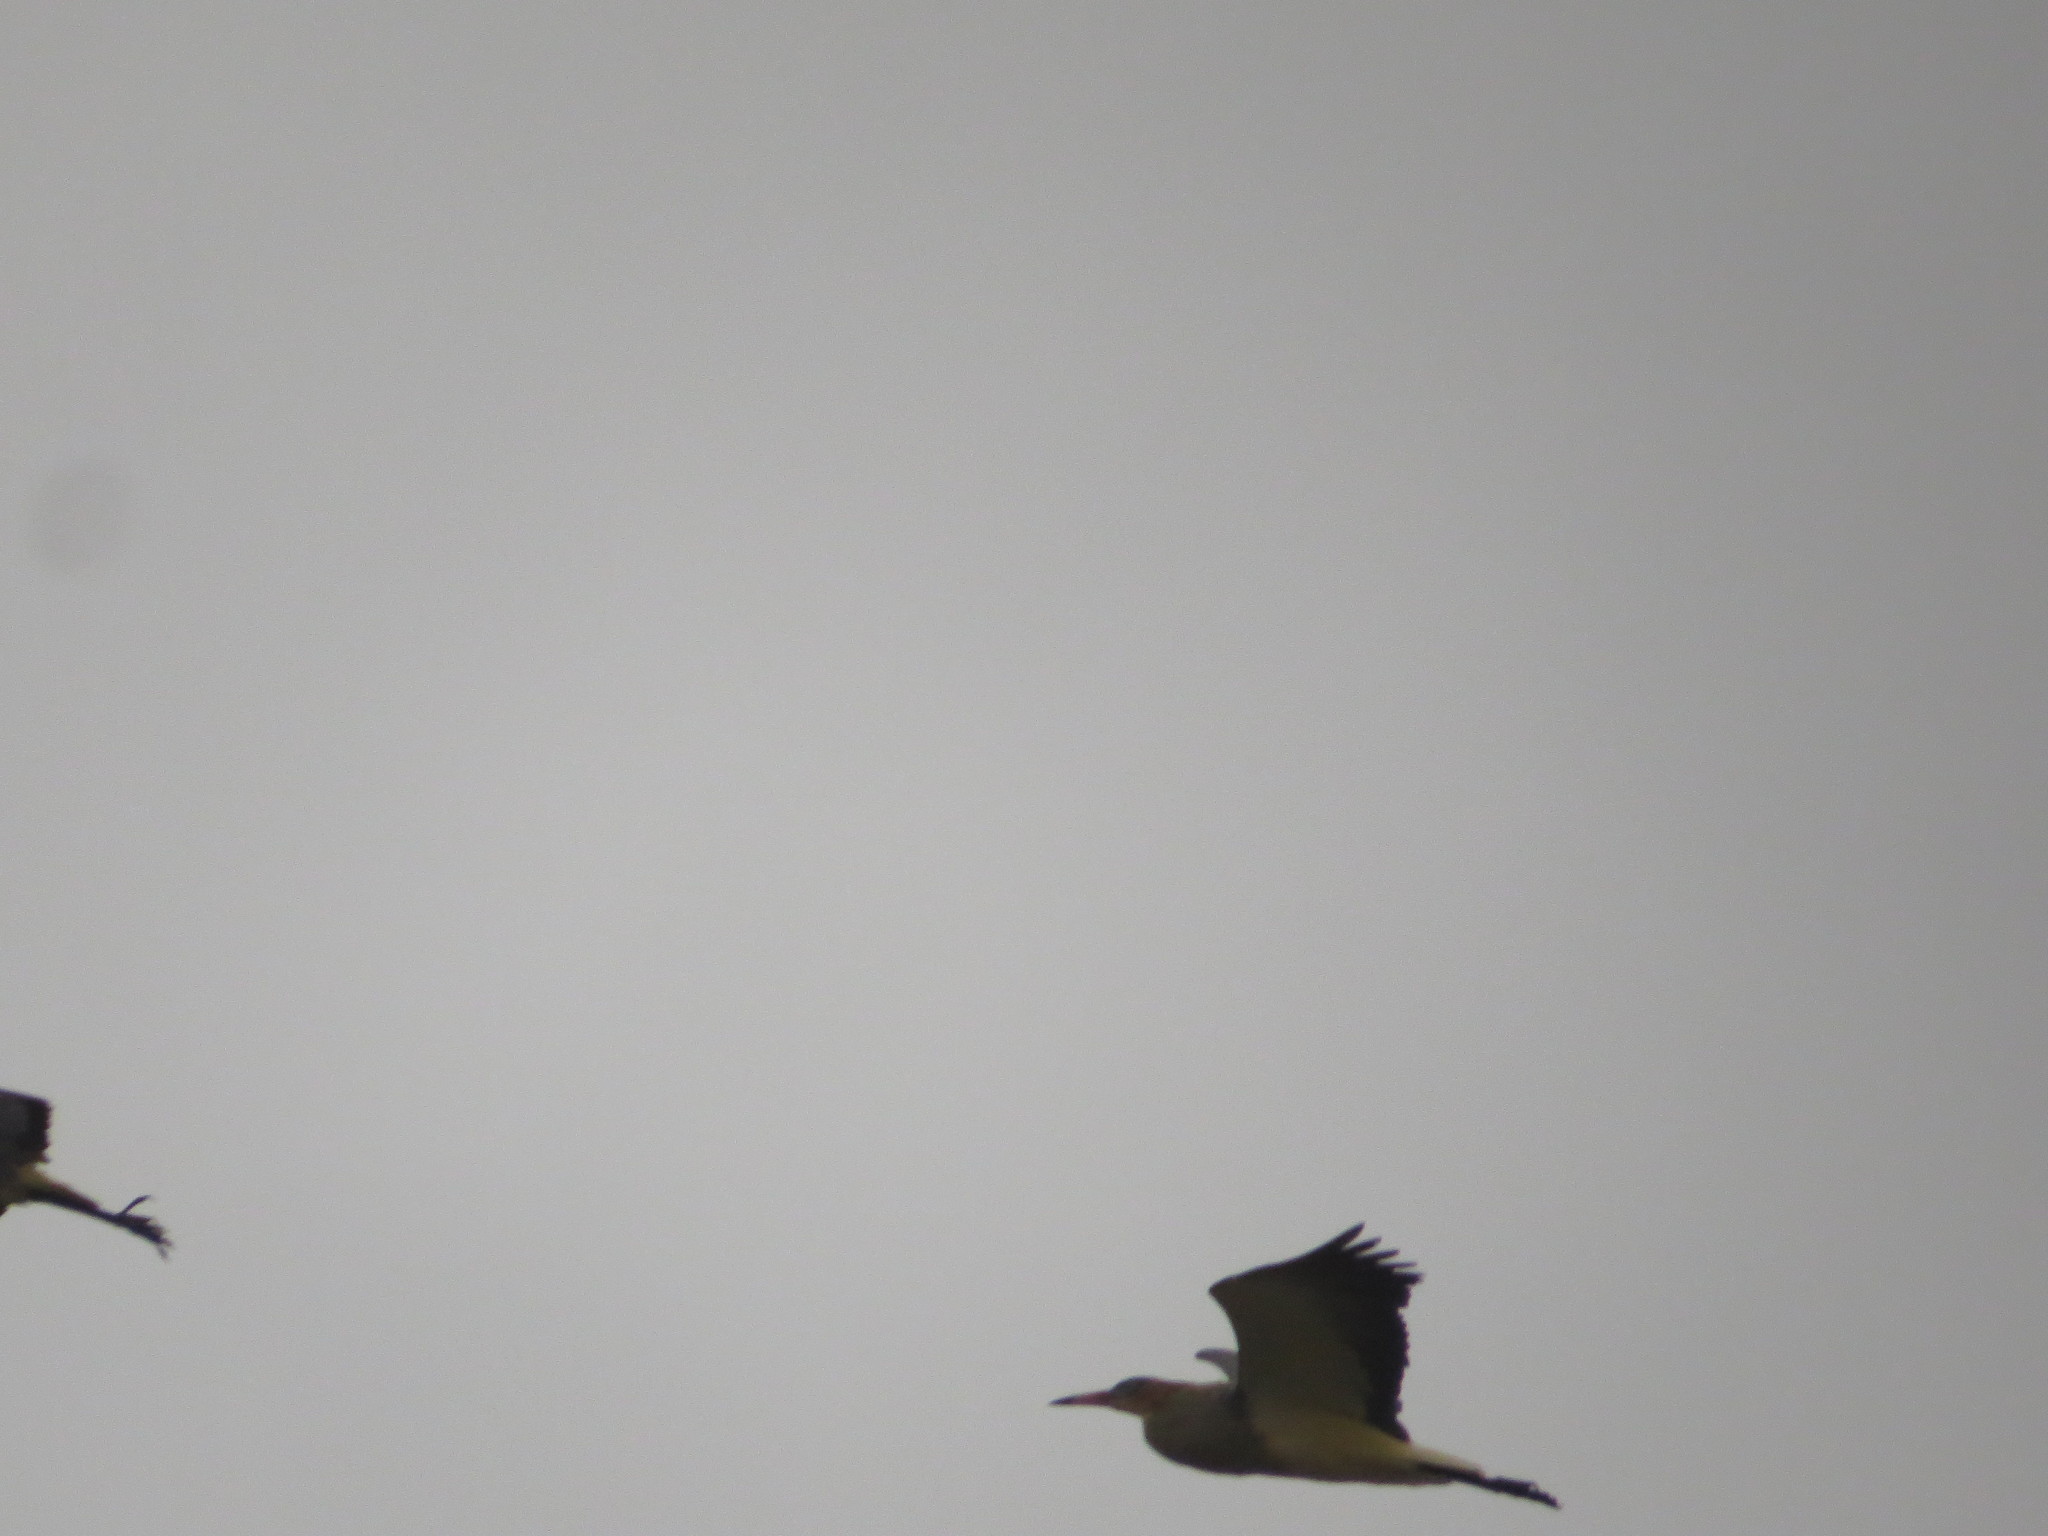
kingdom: Animalia
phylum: Chordata
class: Aves
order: Pelecaniformes
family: Ardeidae
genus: Syrigma
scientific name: Syrigma sibilatrix
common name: Whistling heron
